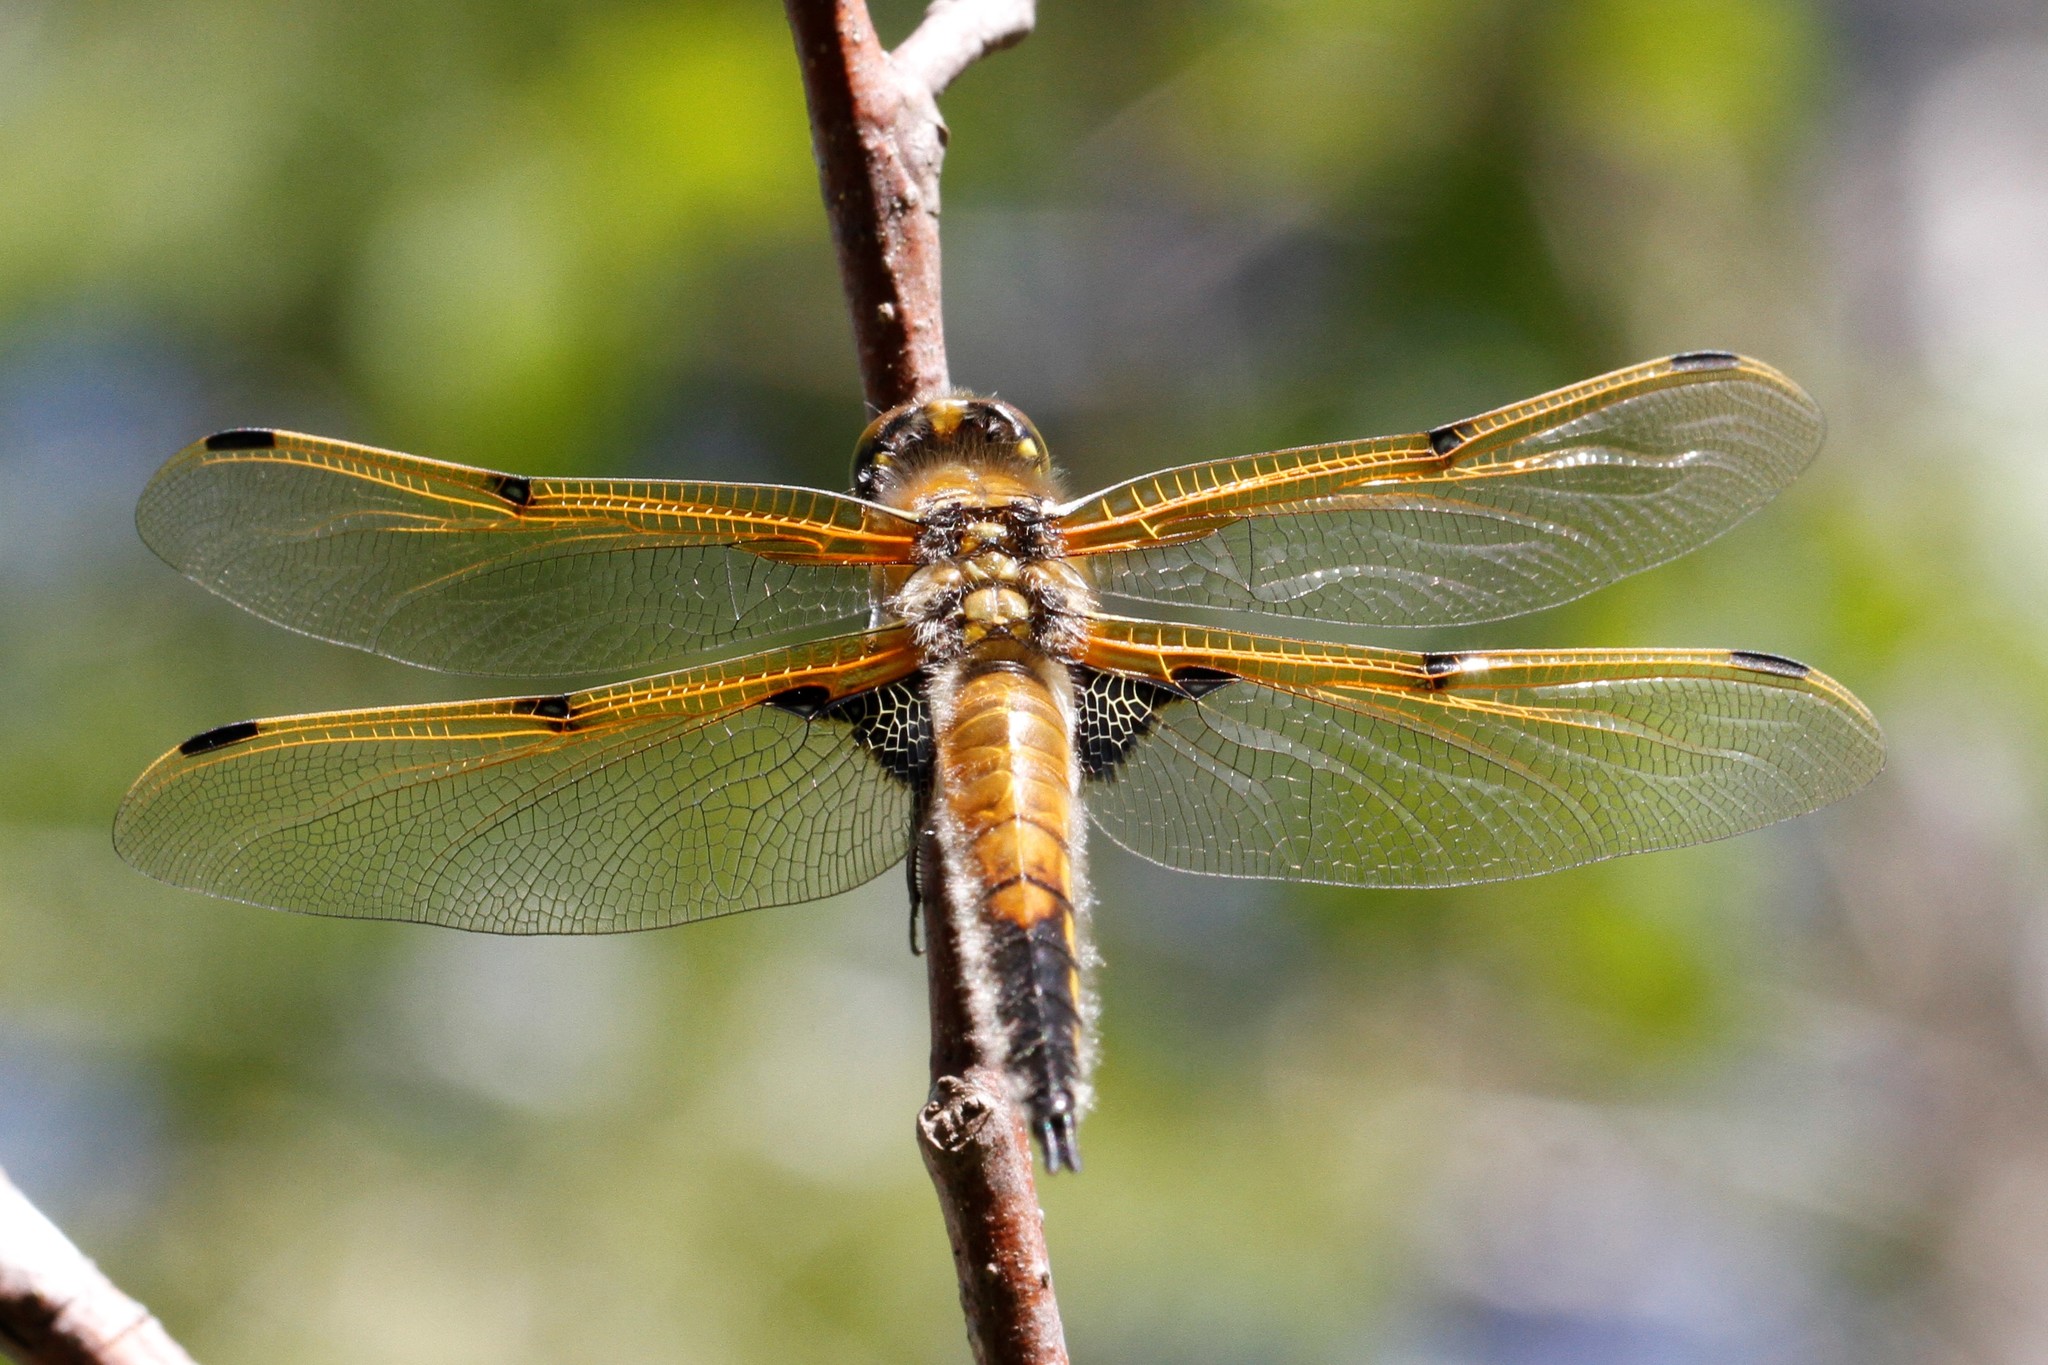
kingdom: Animalia
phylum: Arthropoda
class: Insecta
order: Odonata
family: Libellulidae
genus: Libellula
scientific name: Libellula quadrimaculata
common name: Four-spotted chaser
